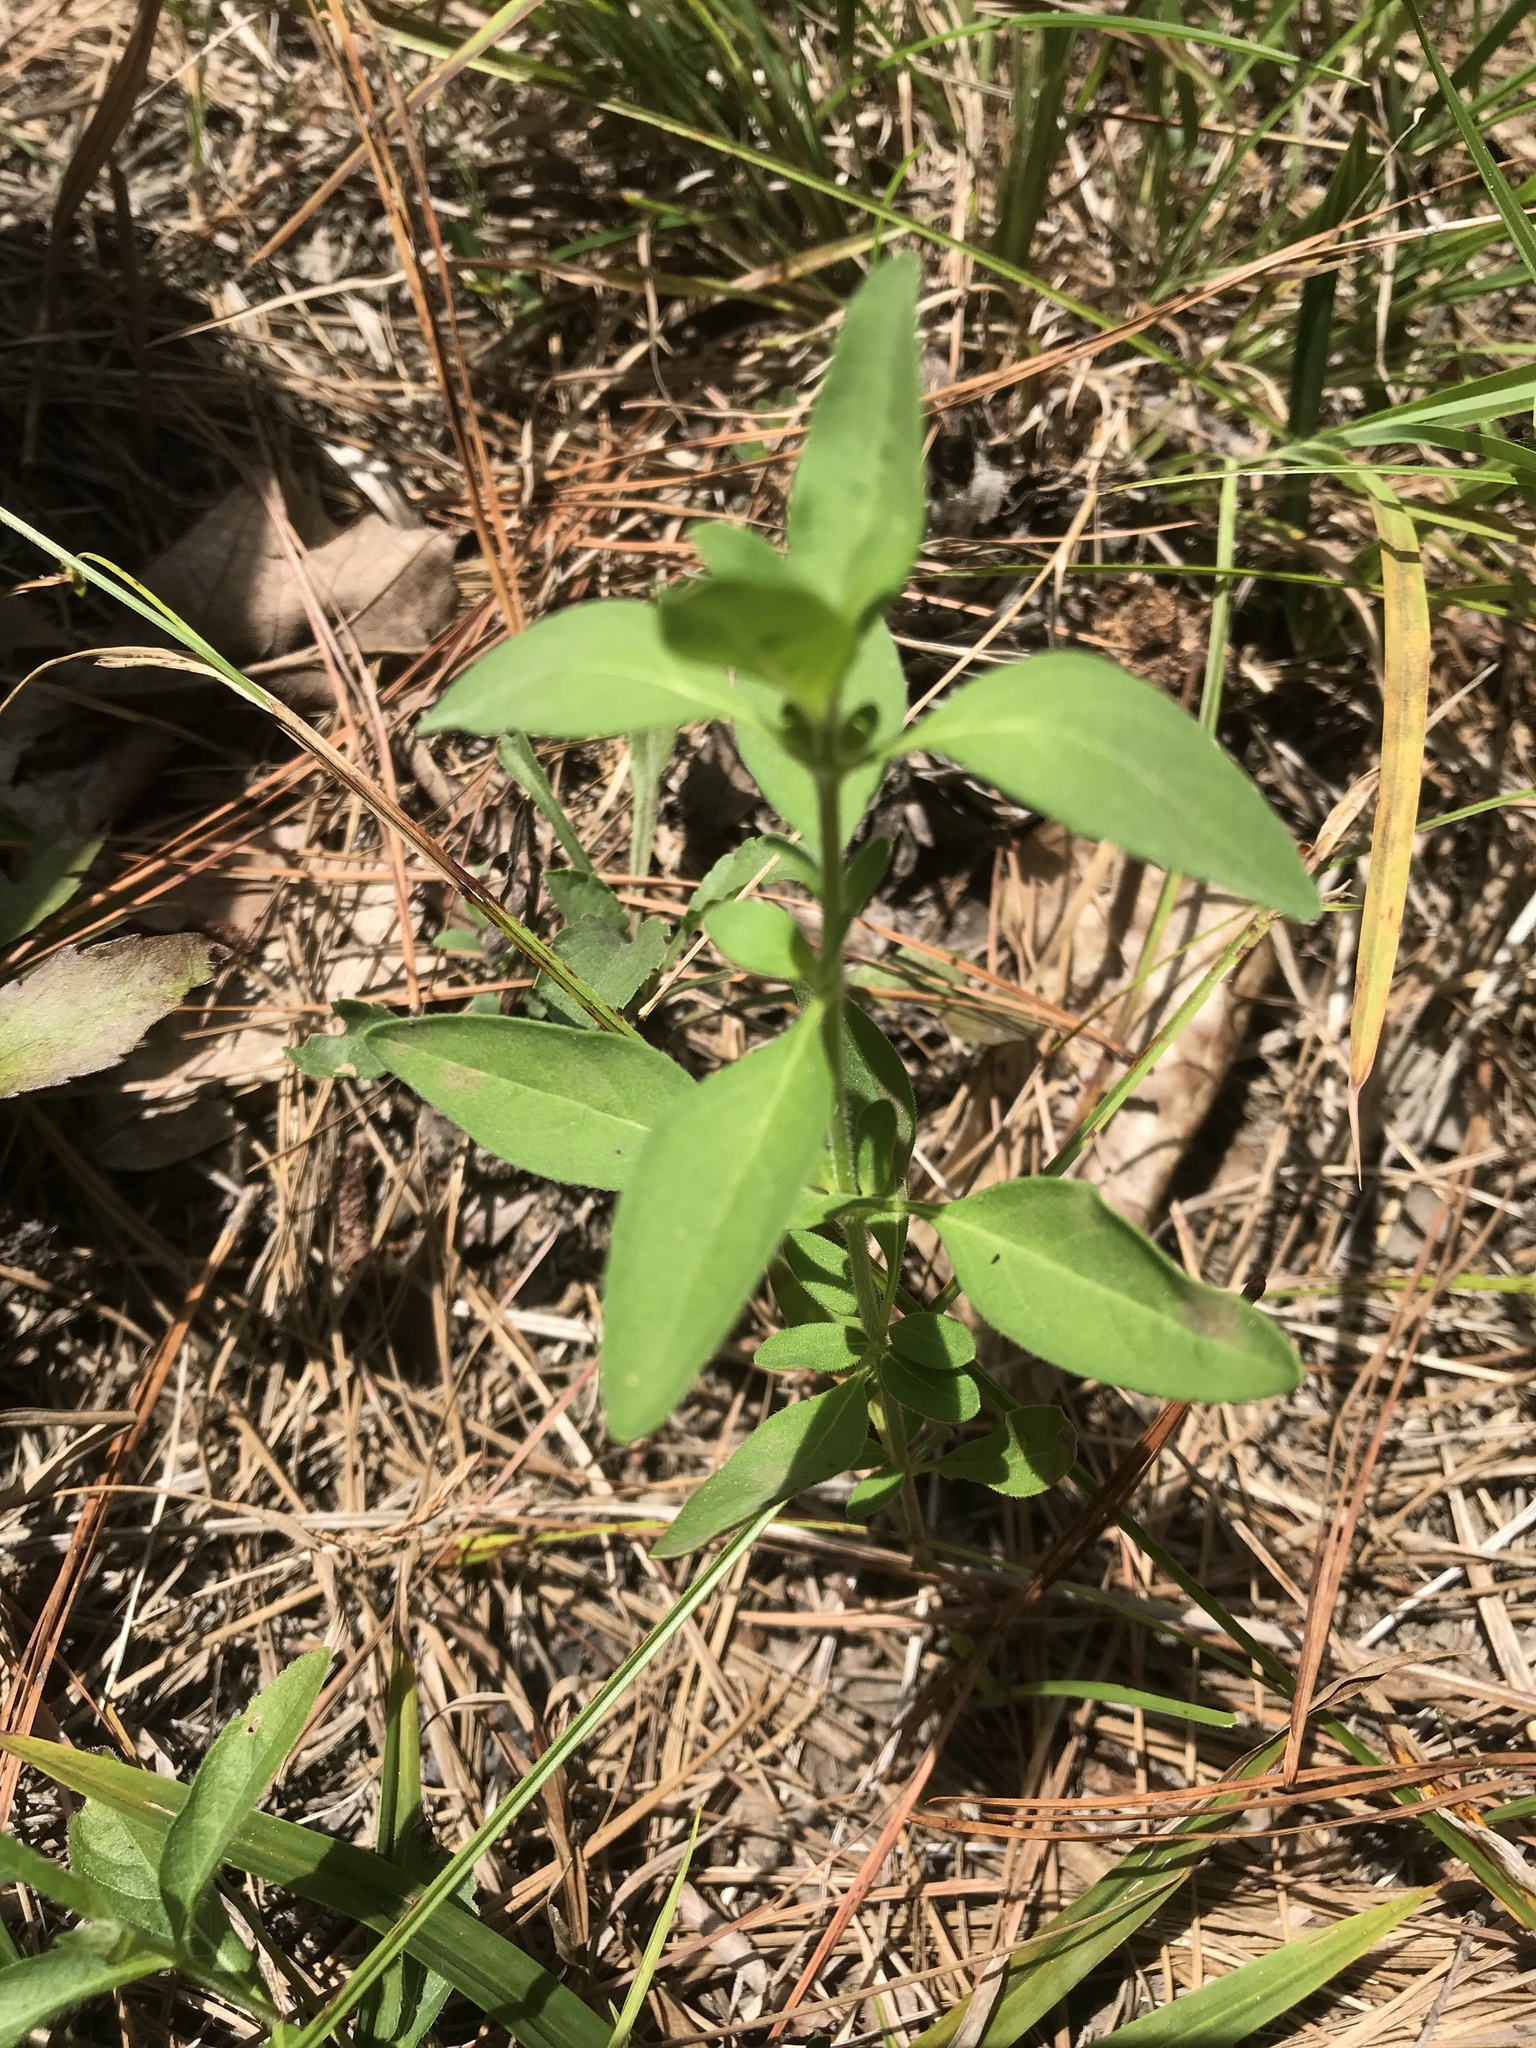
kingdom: Plantae
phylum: Tracheophyta
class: Magnoliopsida
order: Lamiales
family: Lamiaceae
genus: Trichostema
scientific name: Trichostema dichotomum
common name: Bastard pennyroyal
